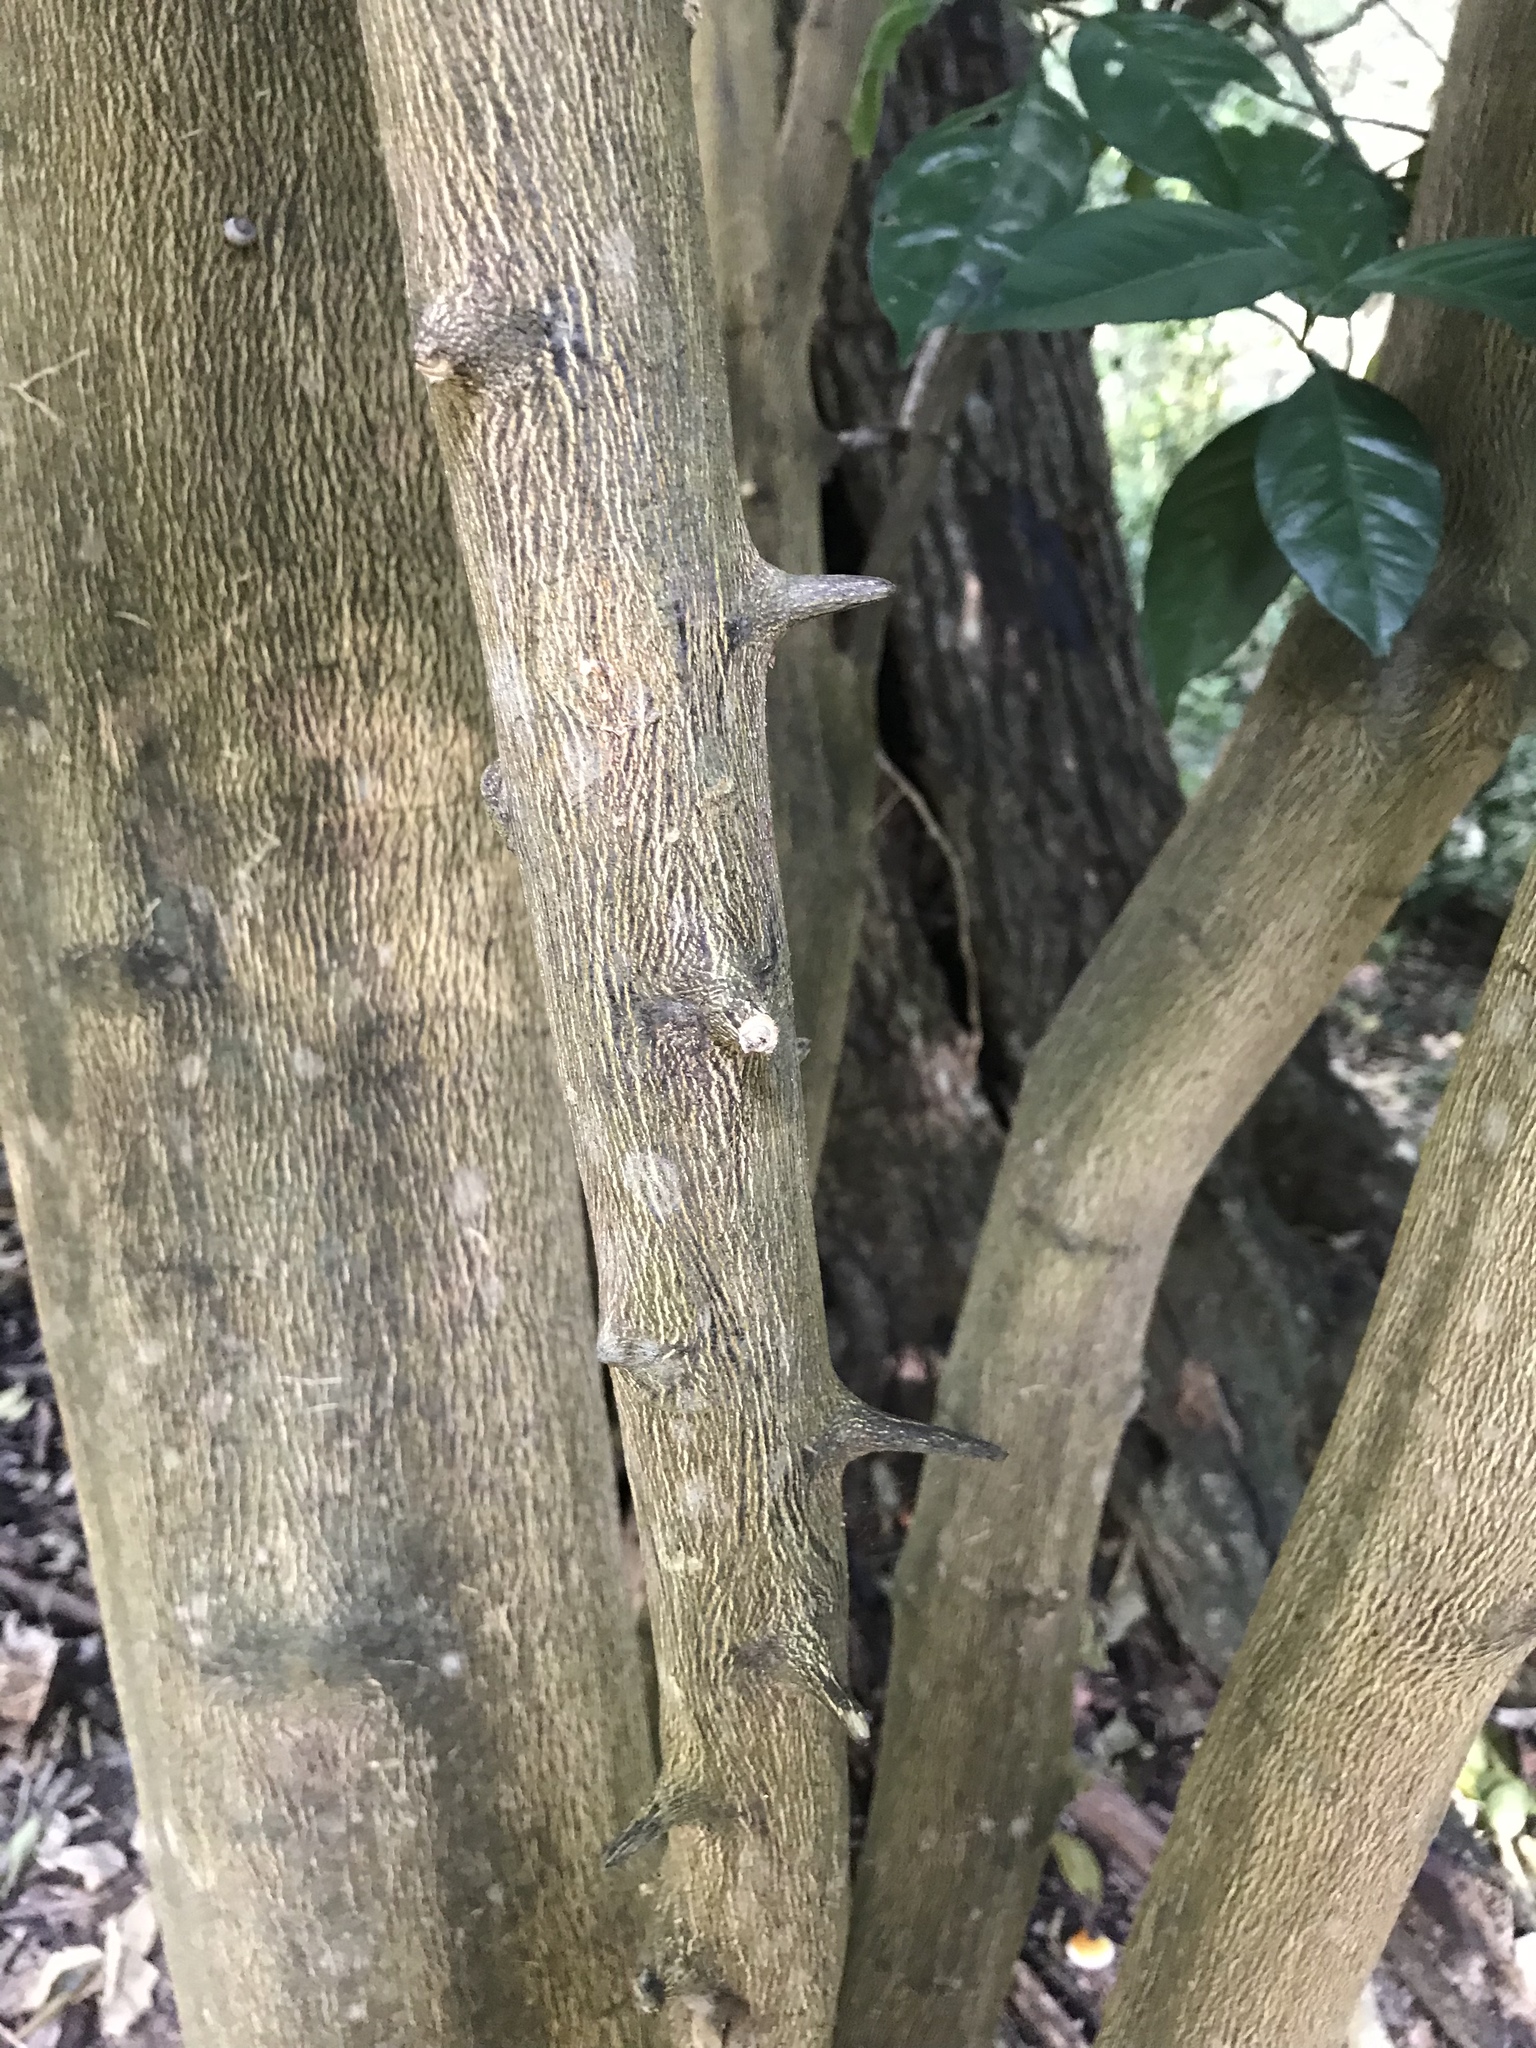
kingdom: Plantae
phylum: Tracheophyta
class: Magnoliopsida
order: Sapindales
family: Rutaceae
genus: Citrus
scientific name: Citrus aurantium
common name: Sour orange
